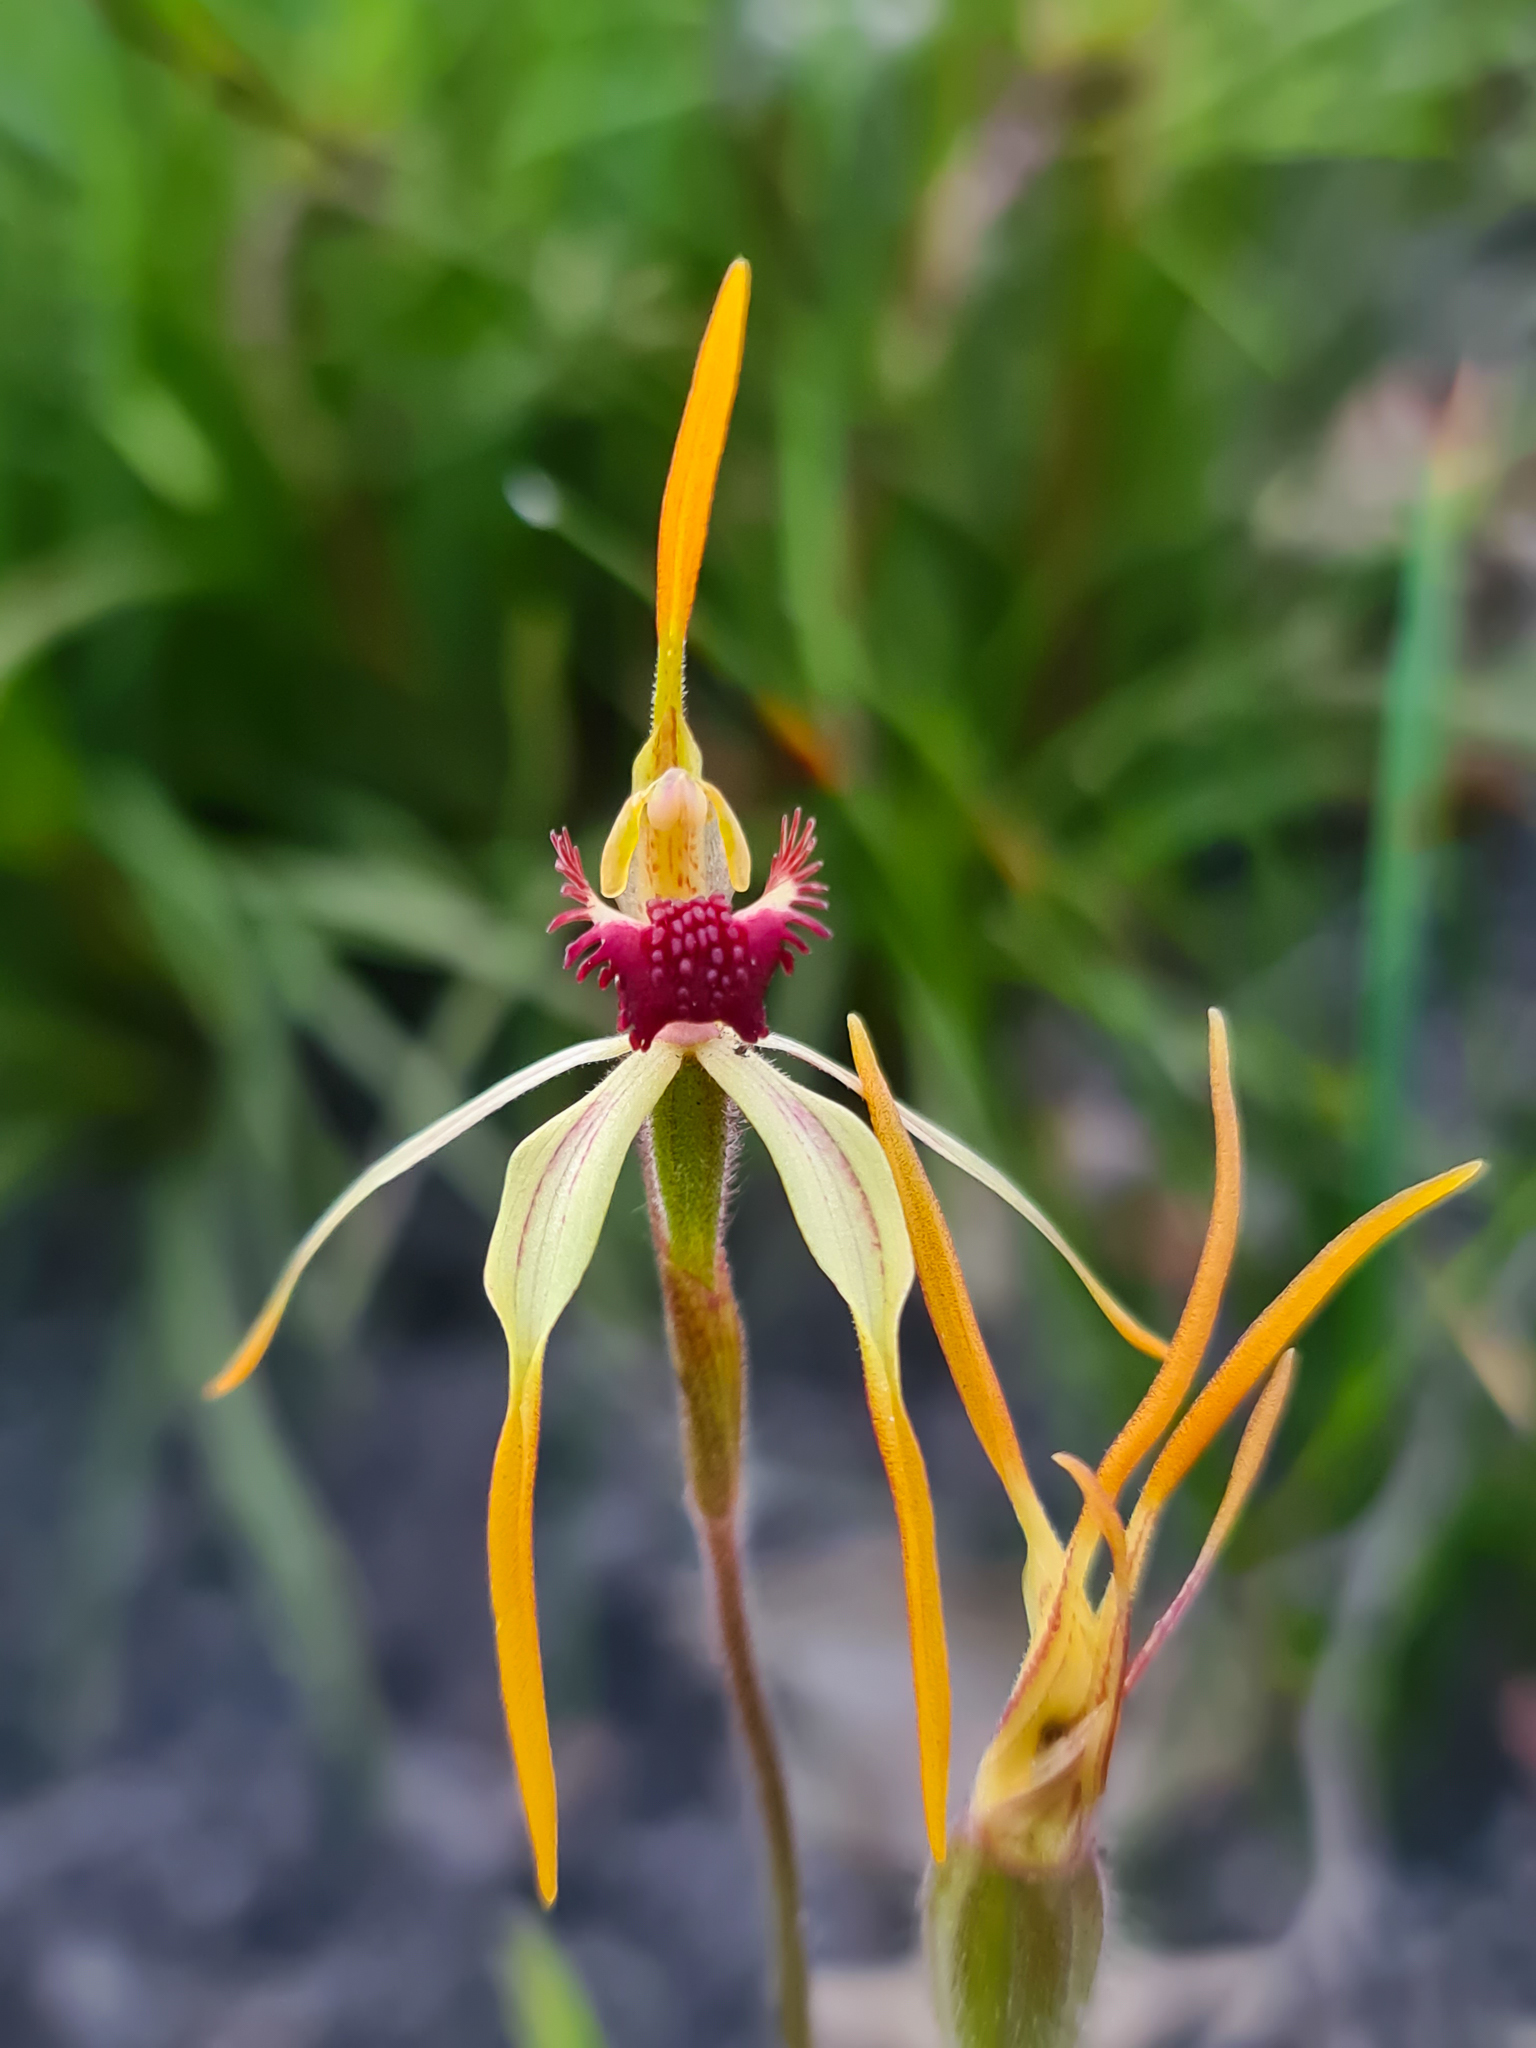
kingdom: Plantae
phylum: Tracheophyta
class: Liliopsida
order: Asparagales
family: Orchidaceae
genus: Caladenia
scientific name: Caladenia longiclavata
